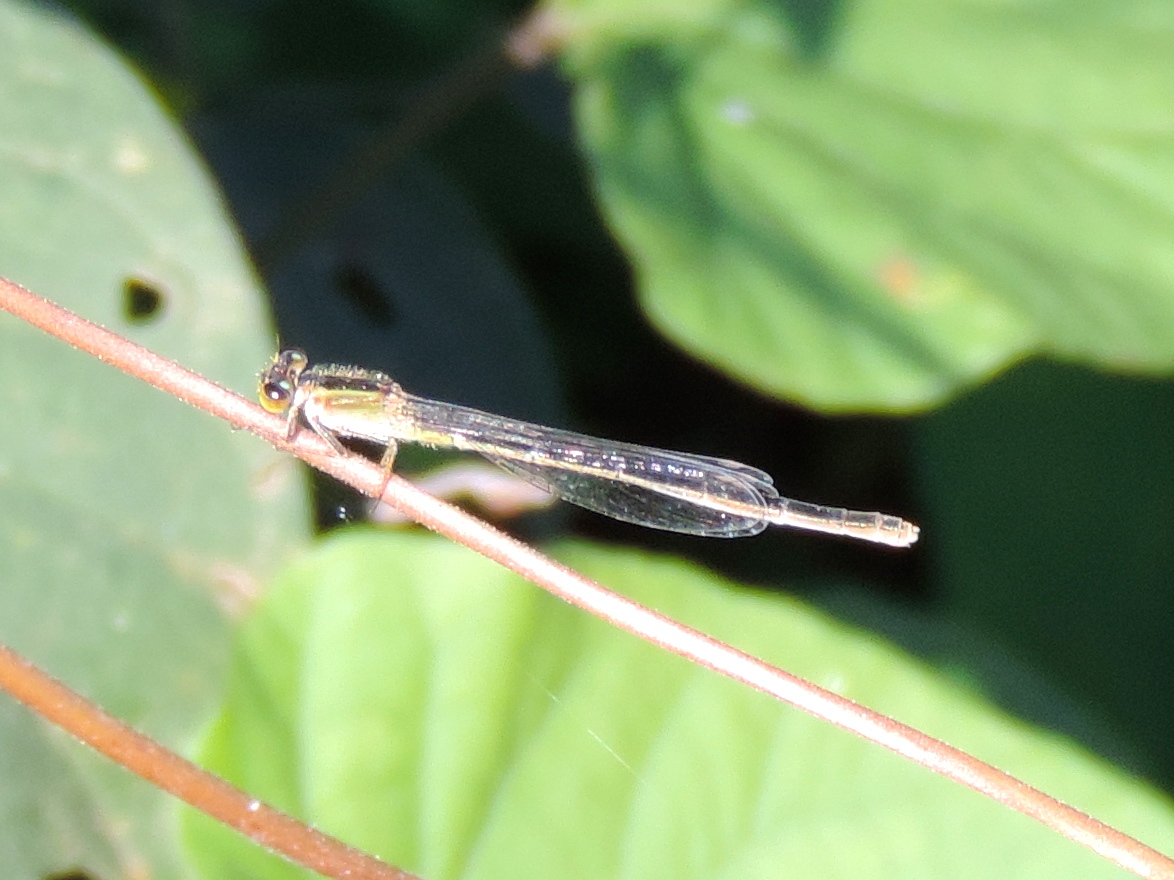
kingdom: Animalia
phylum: Arthropoda
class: Insecta
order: Odonata
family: Coenagrionidae
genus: Ischnura
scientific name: Ischnura
